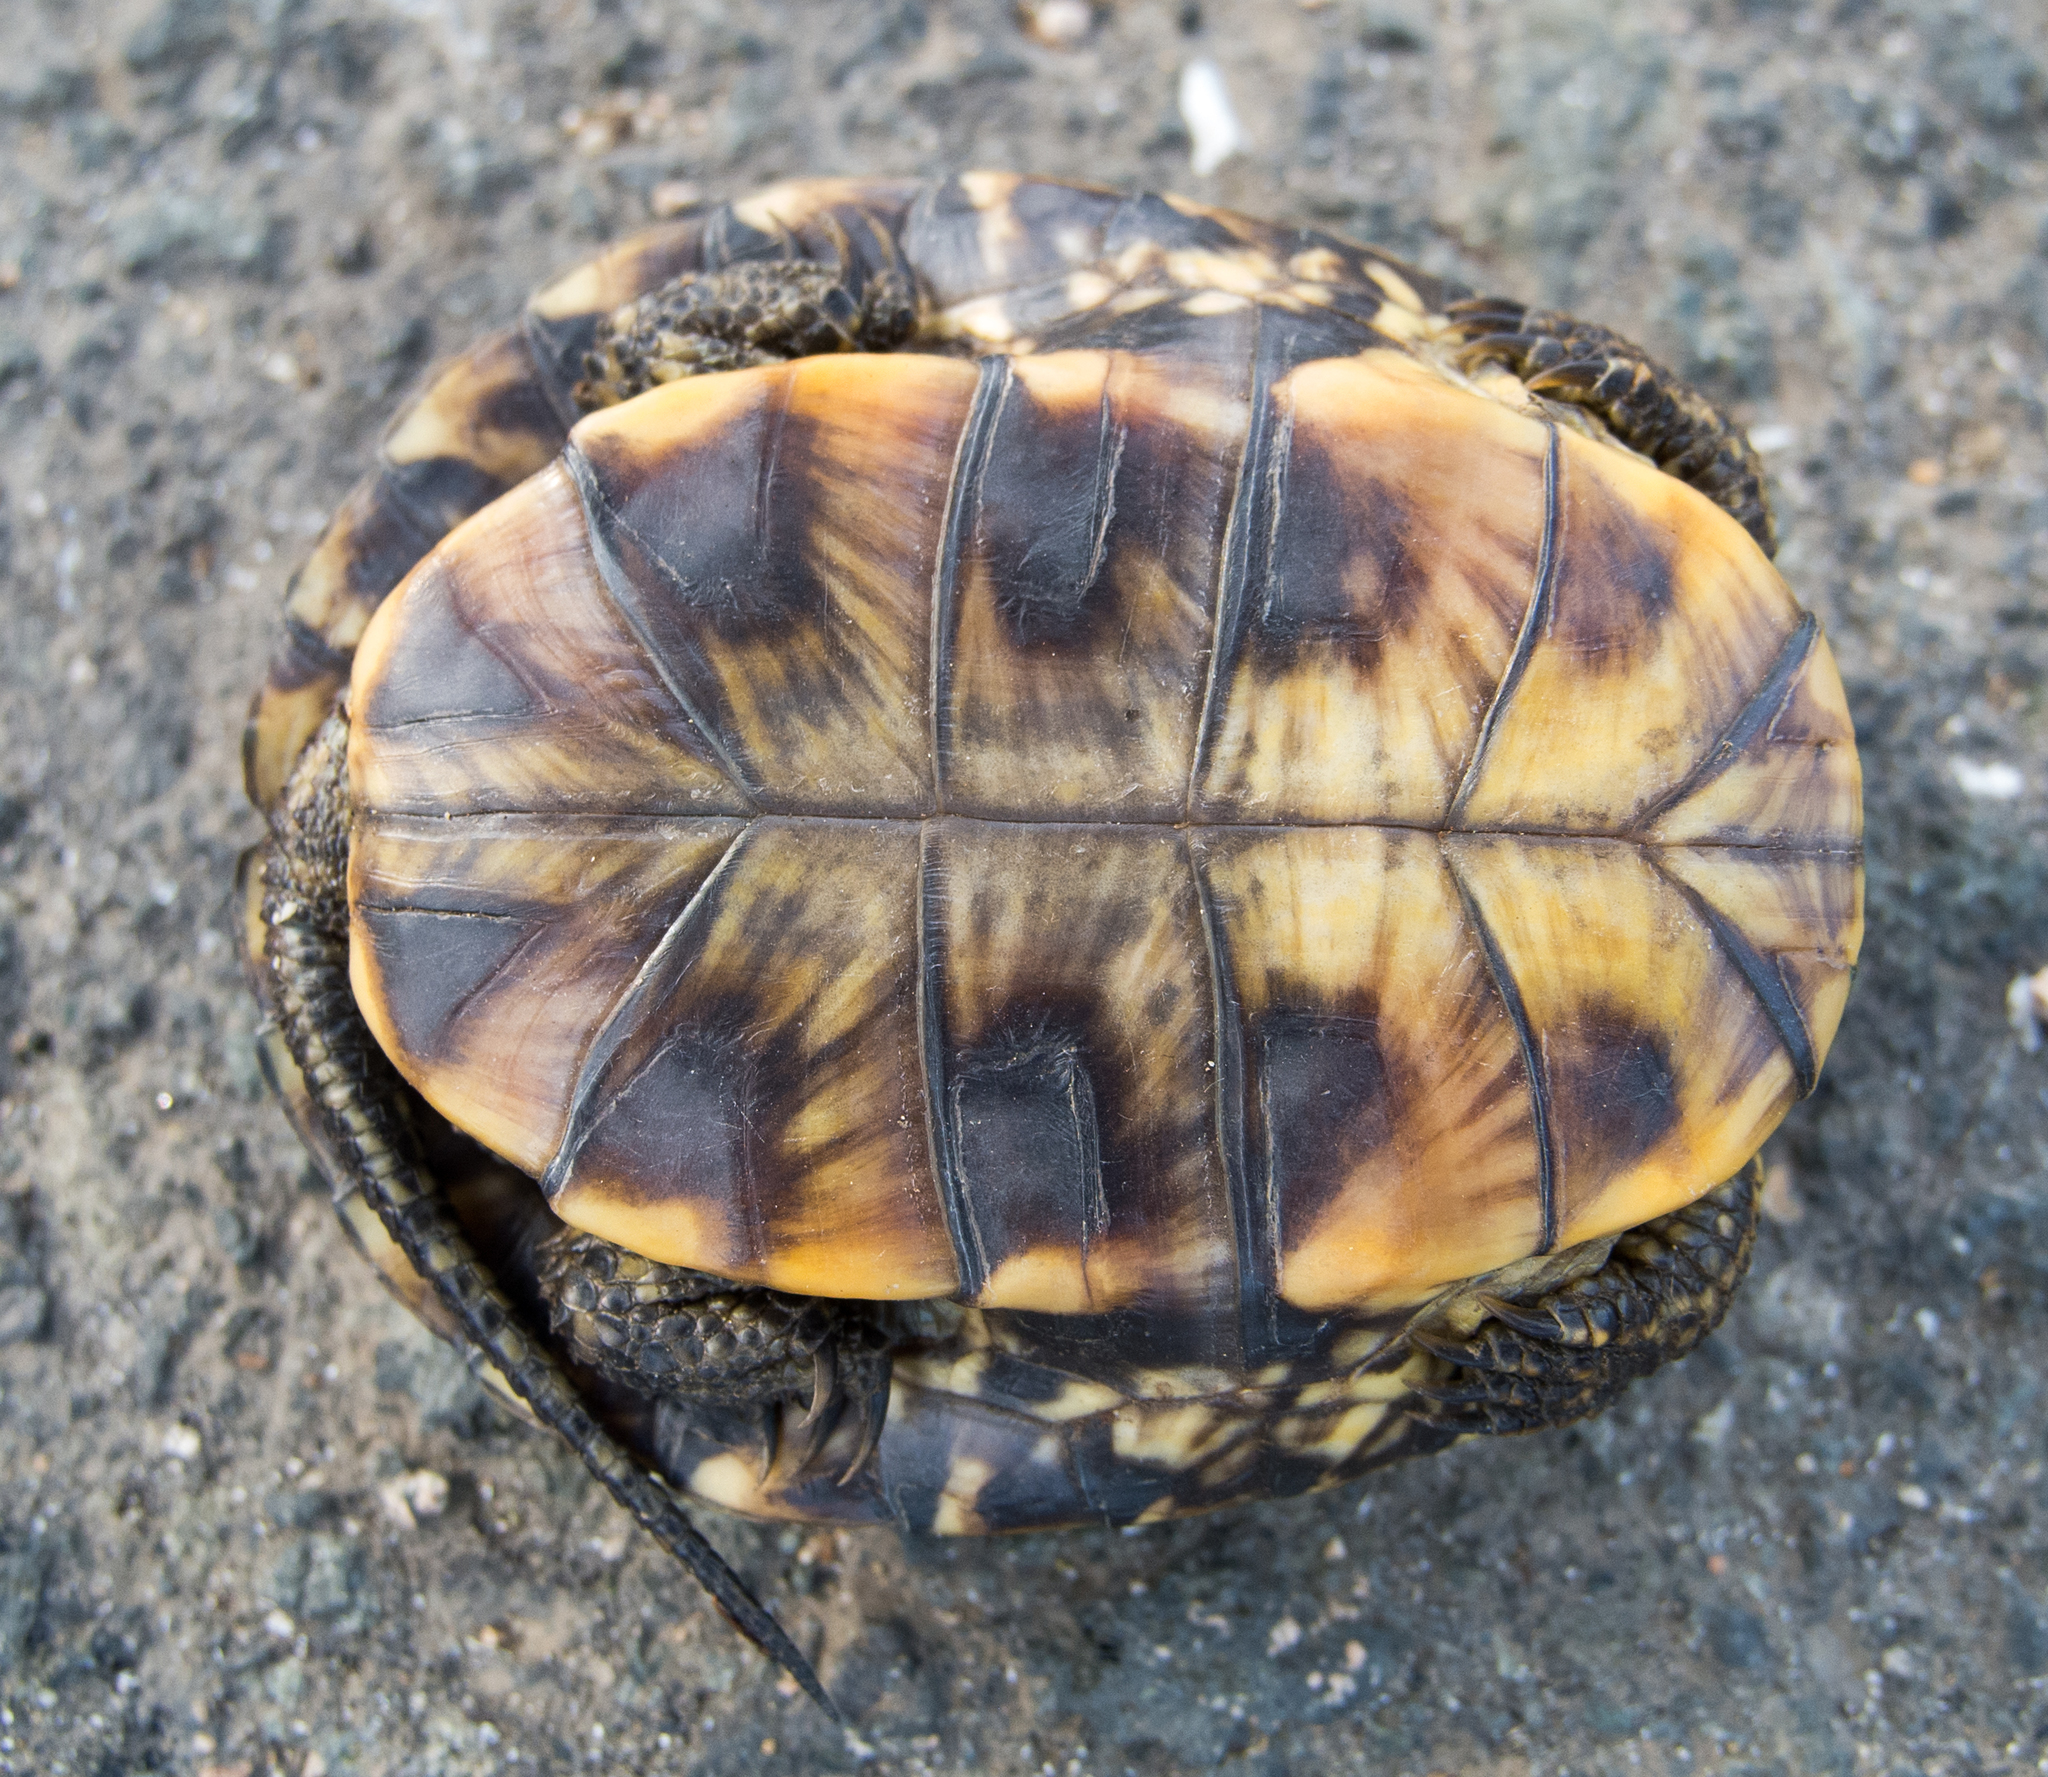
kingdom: Animalia
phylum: Chordata
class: Testudines
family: Emydidae
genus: Emys
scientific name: Emys orbicularis
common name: European pond turtle
